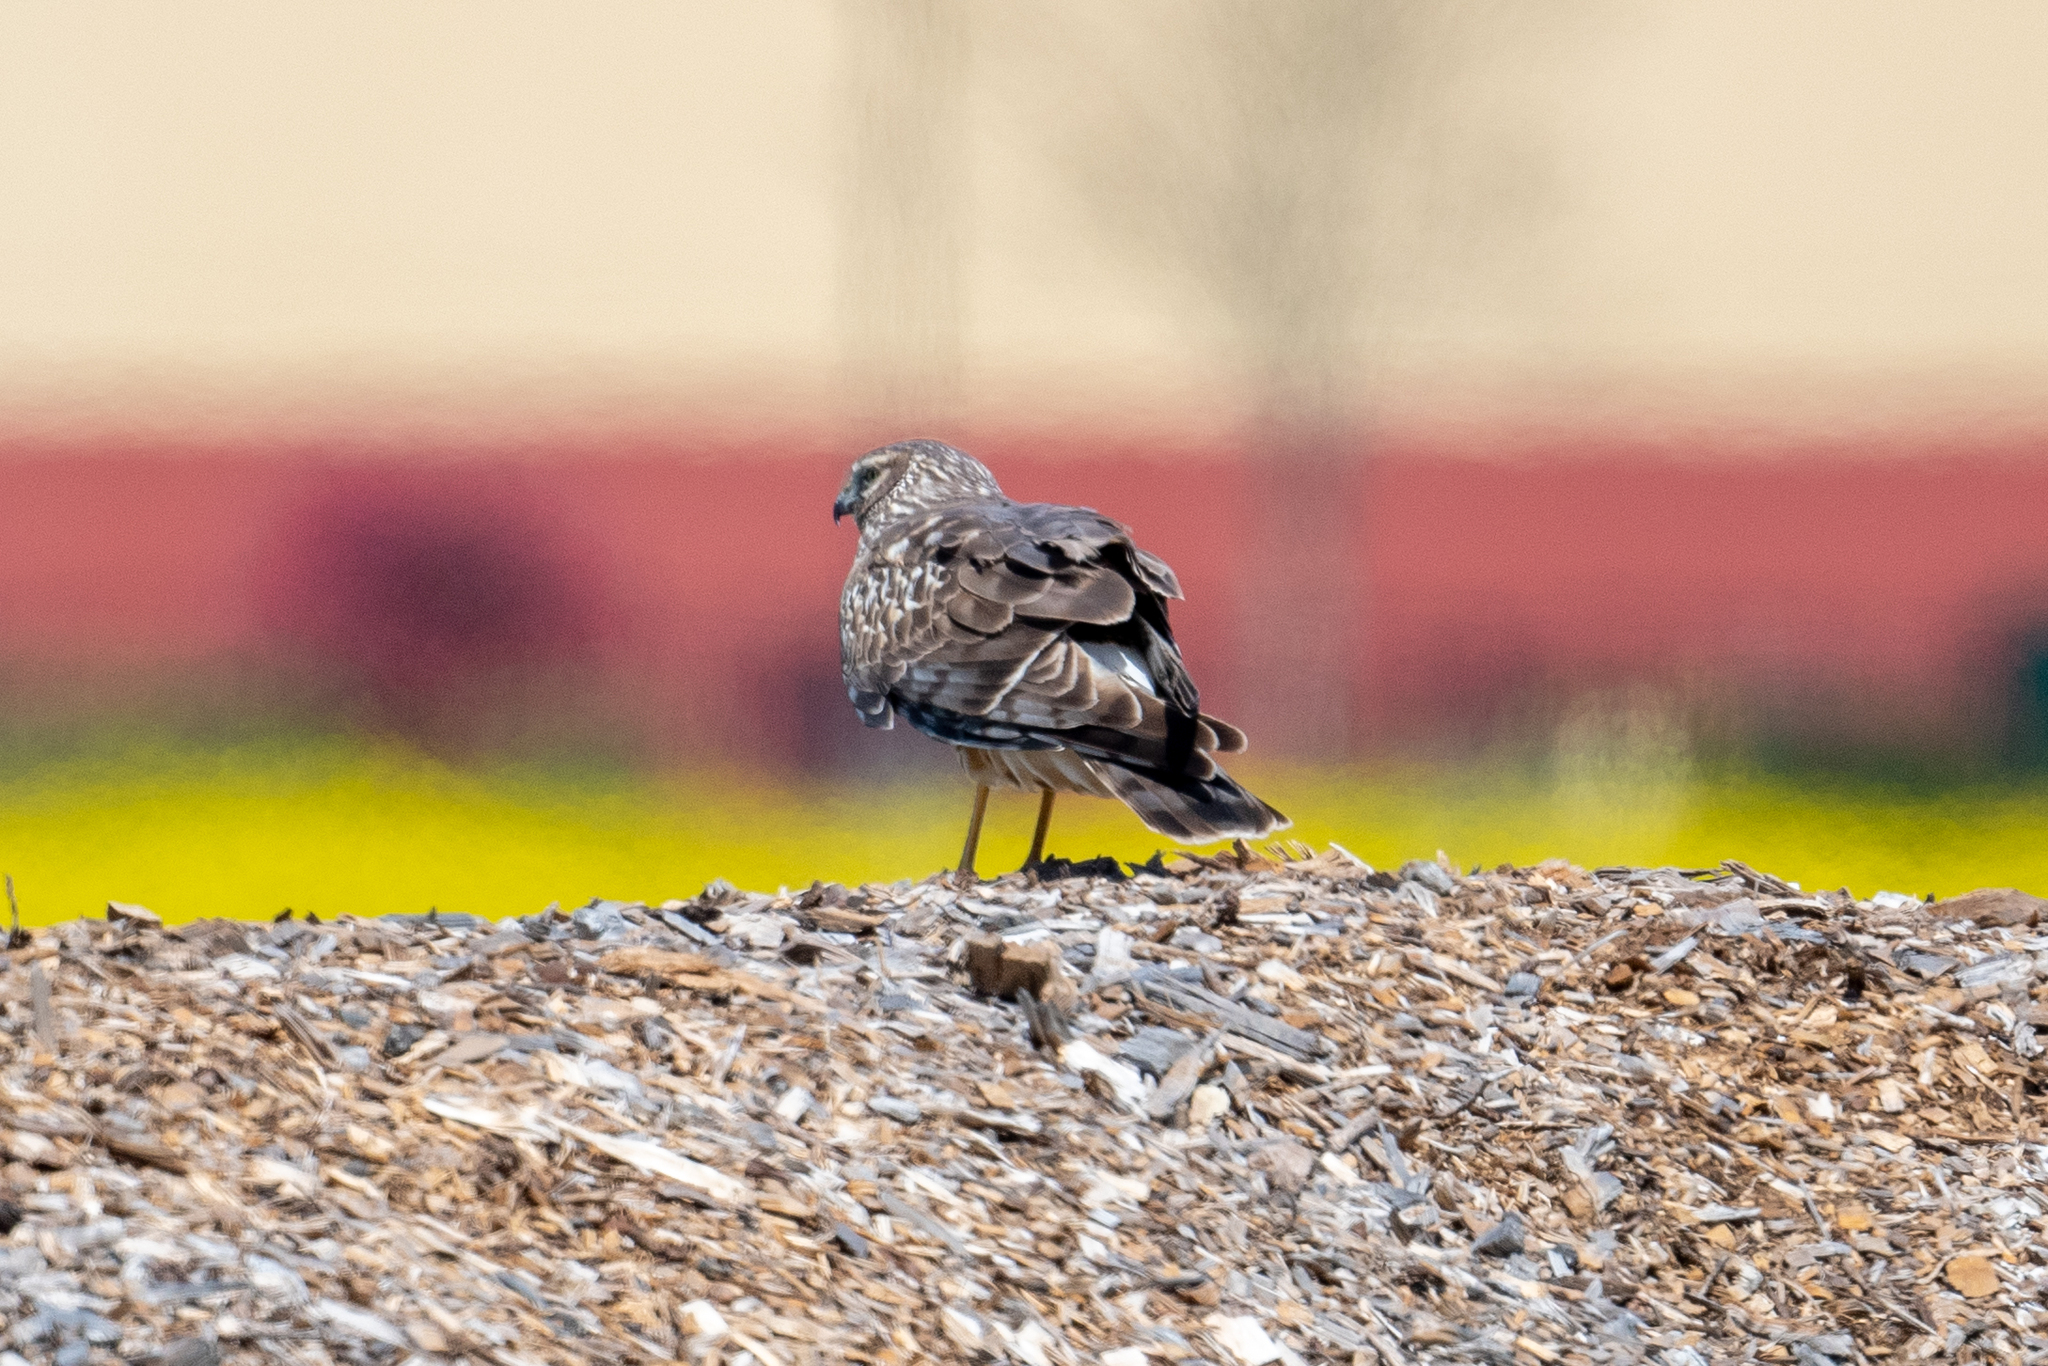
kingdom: Animalia
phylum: Chordata
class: Aves
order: Accipitriformes
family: Accipitridae
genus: Circus
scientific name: Circus cyaneus
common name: Hen harrier
